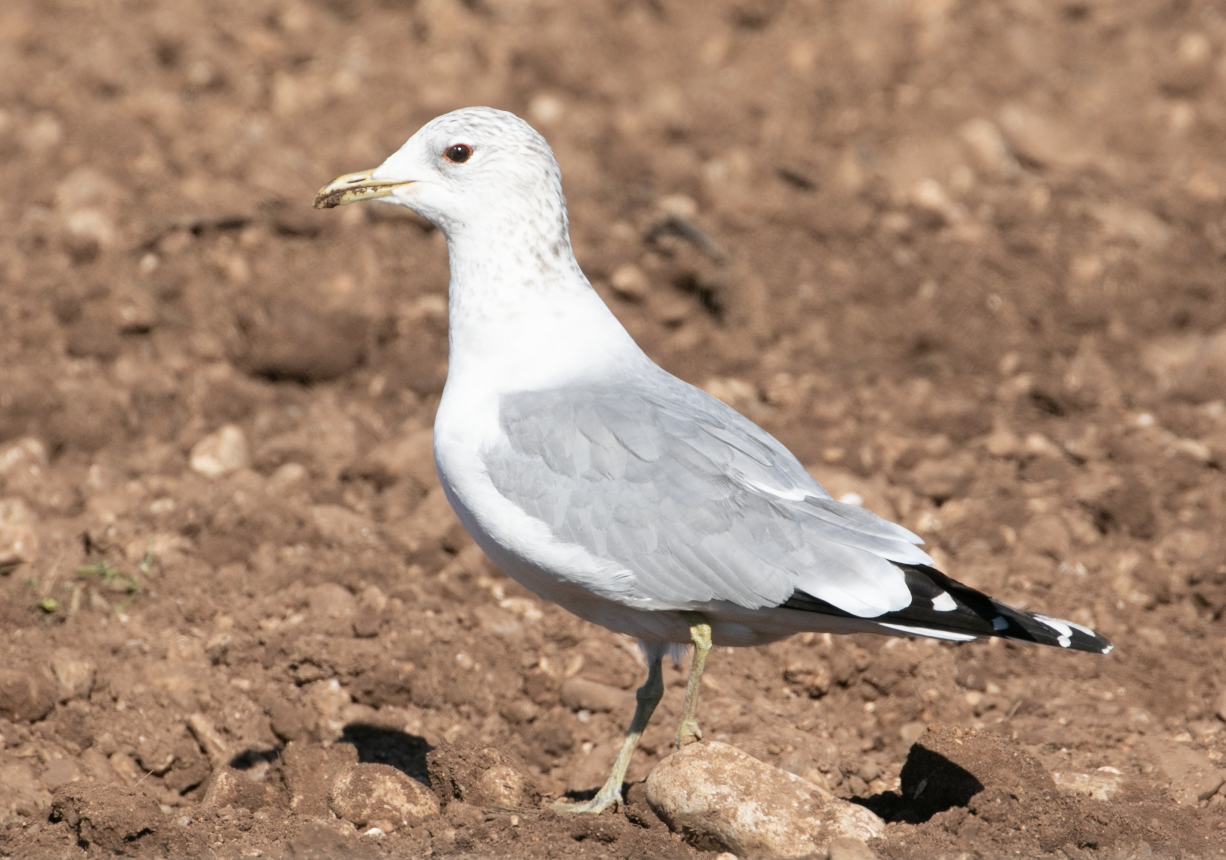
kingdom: Animalia
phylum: Chordata
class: Aves
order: Charadriiformes
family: Laridae
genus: Larus
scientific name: Larus canus
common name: Mew gull
